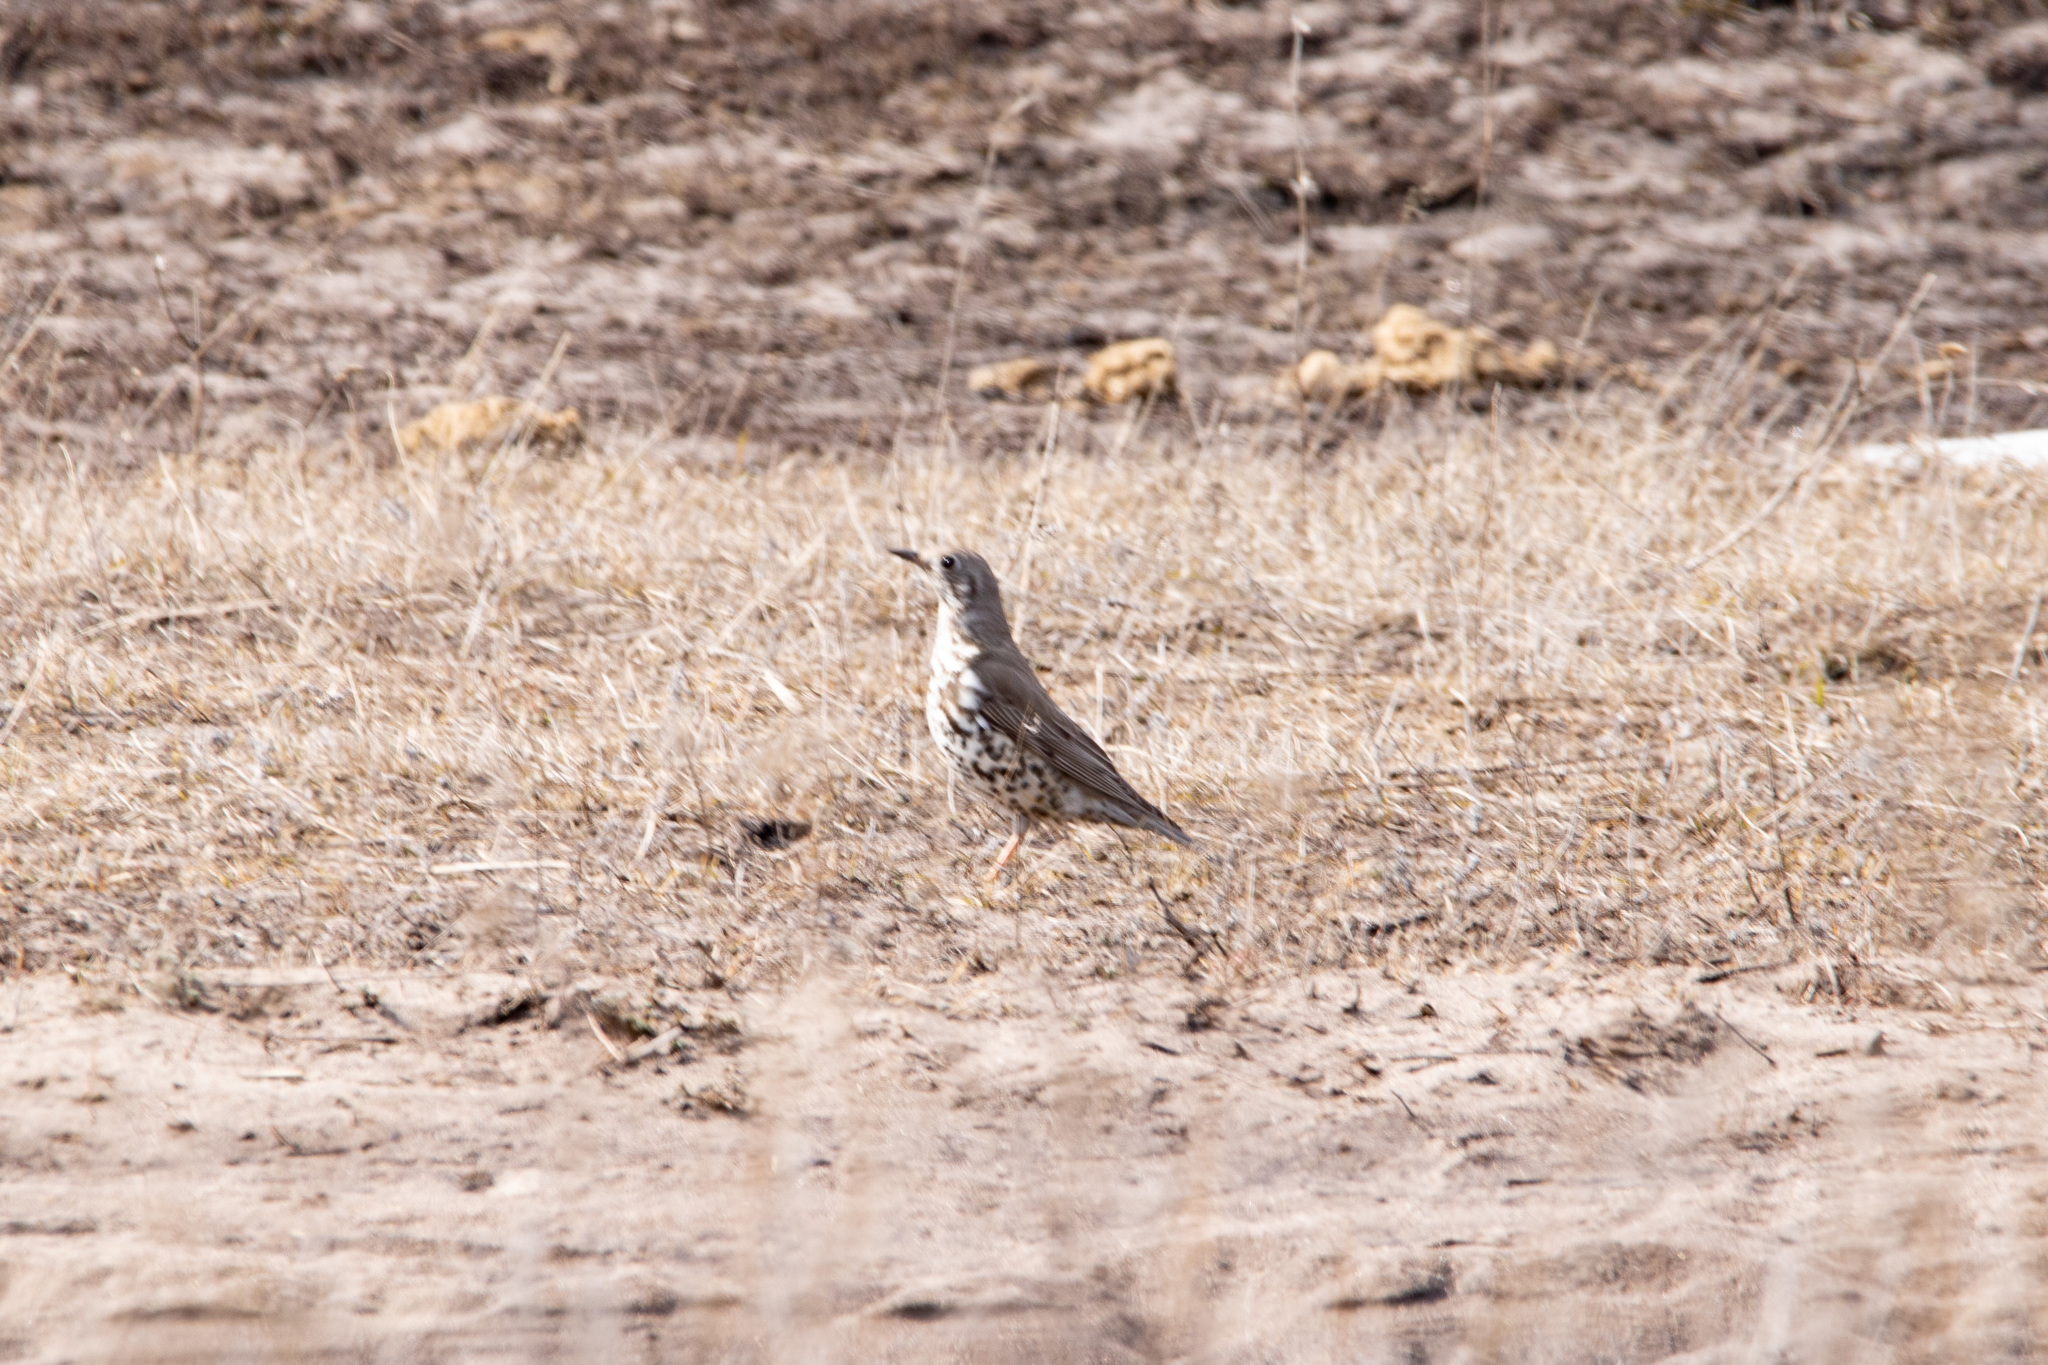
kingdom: Animalia
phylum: Chordata
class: Aves
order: Passeriformes
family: Turdidae
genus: Turdus
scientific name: Turdus viscivorus
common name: Mistle thrush
